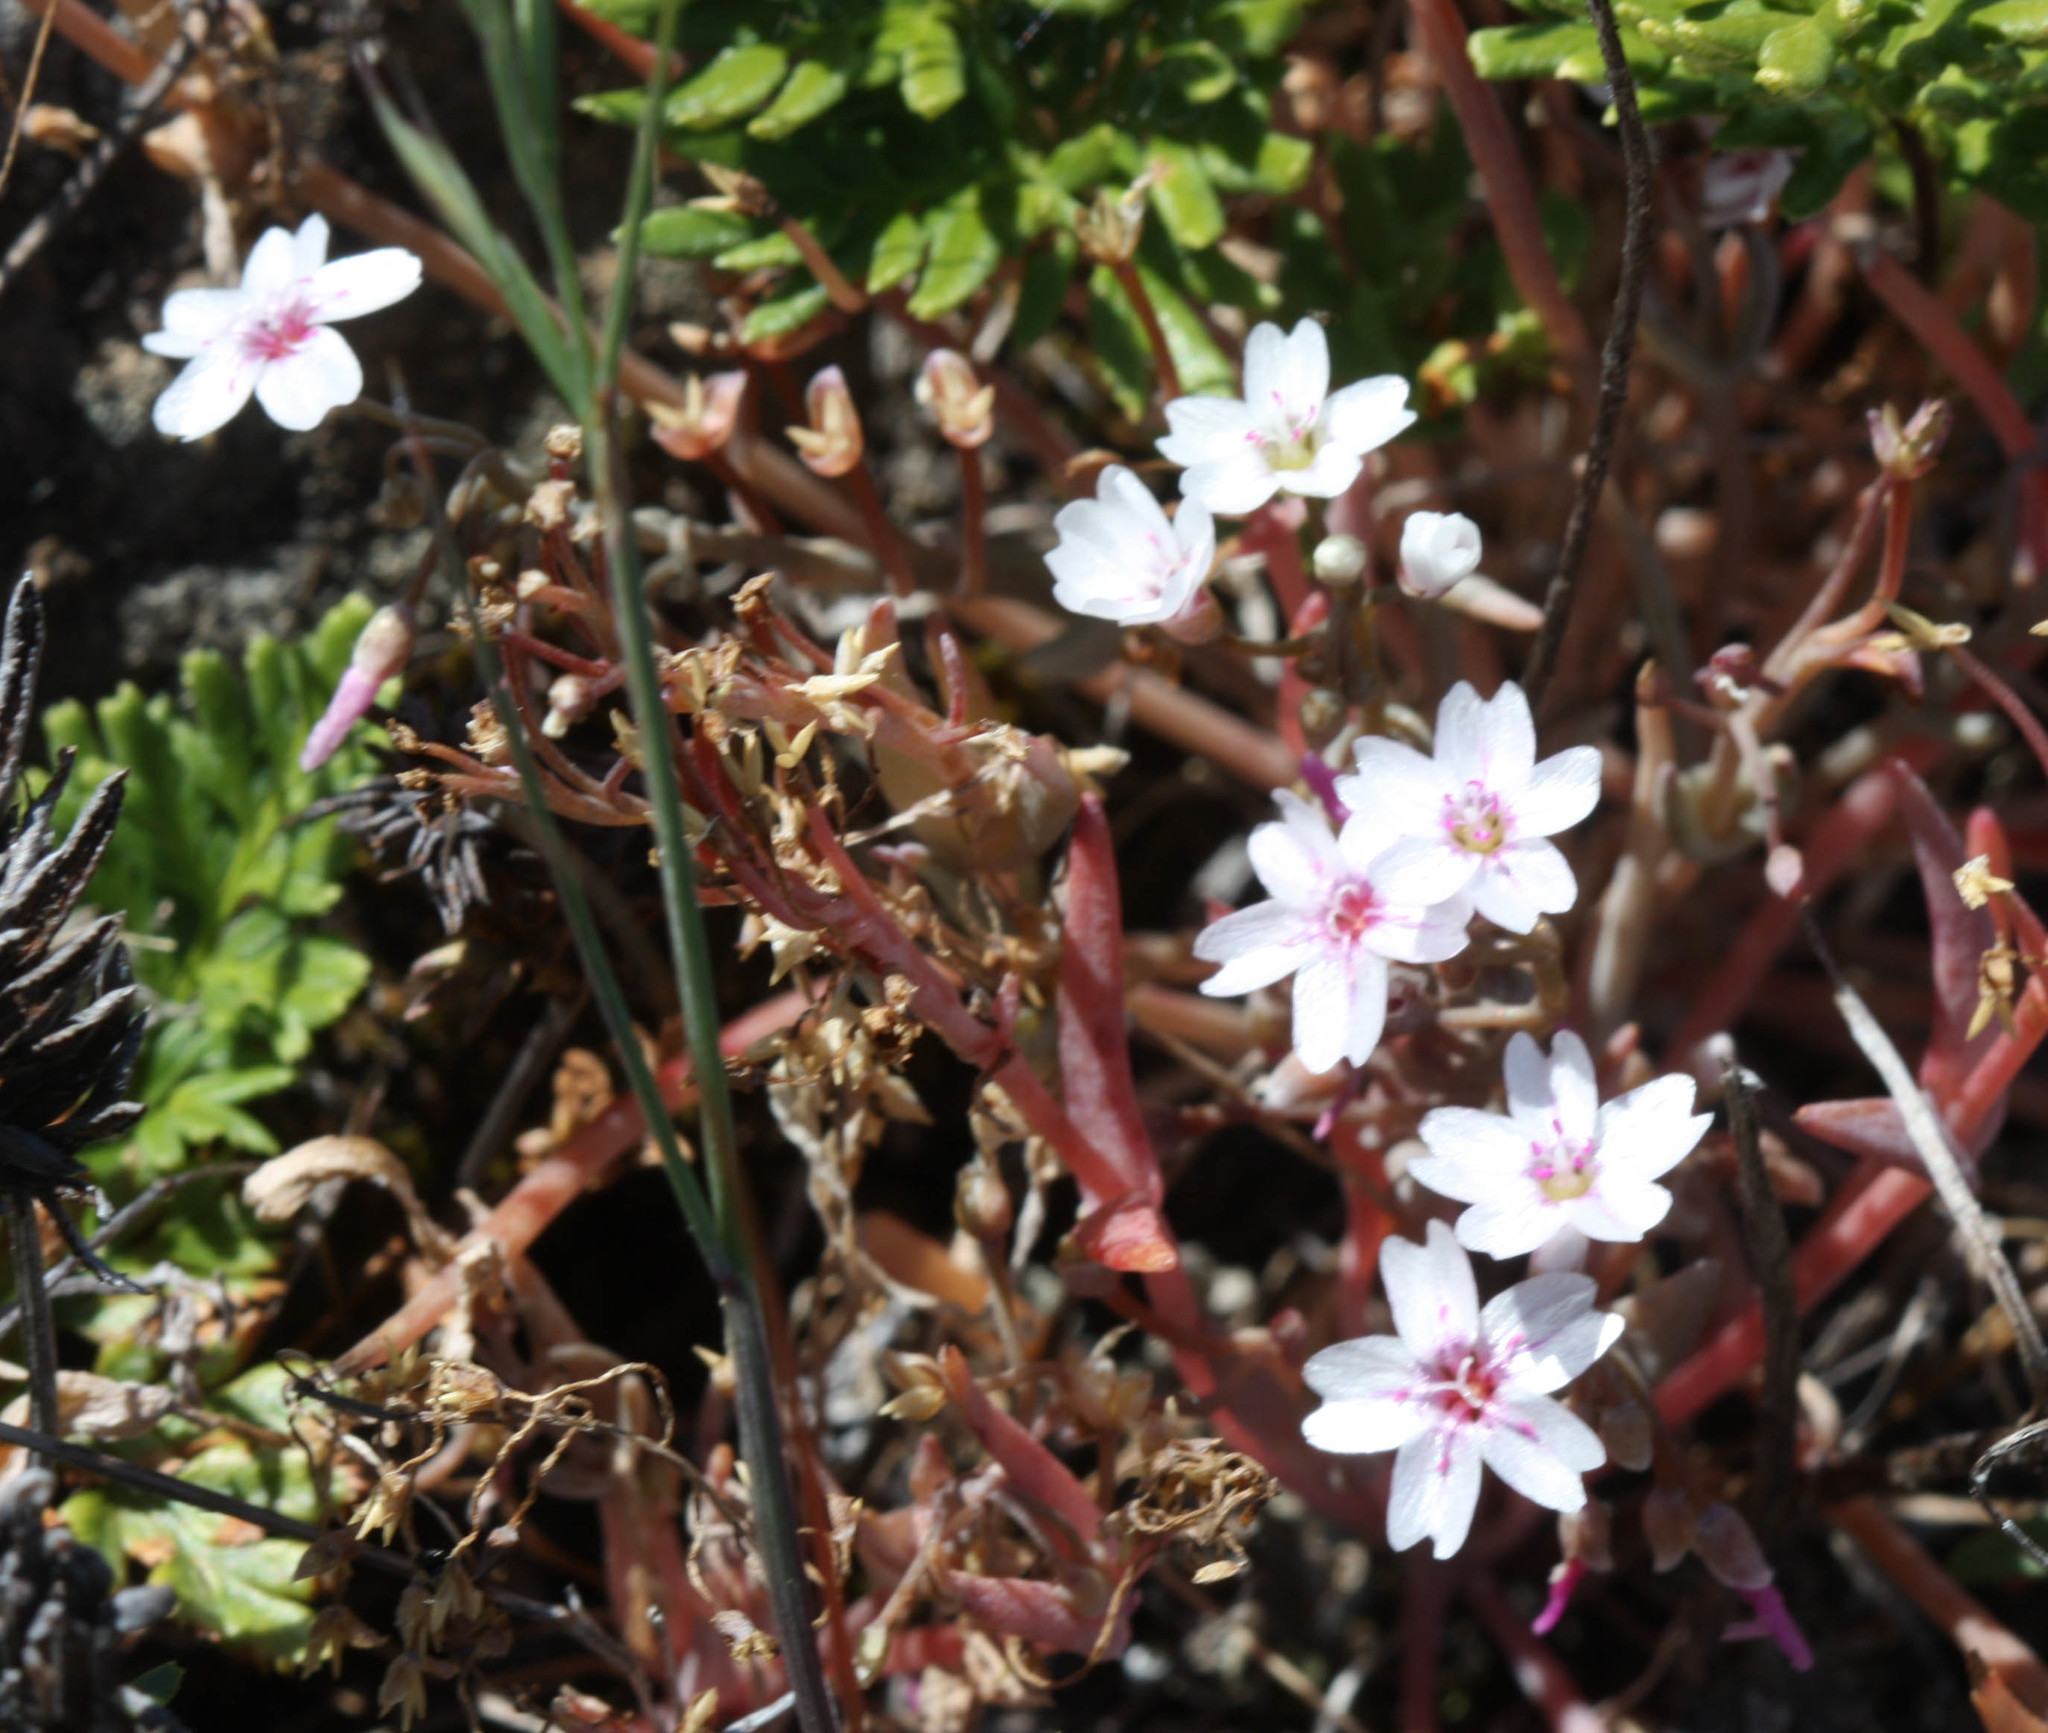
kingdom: Plantae
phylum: Tracheophyta
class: Magnoliopsida
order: Caryophyllales
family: Montiaceae
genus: Claytonia
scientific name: Claytonia gypsophiloides
